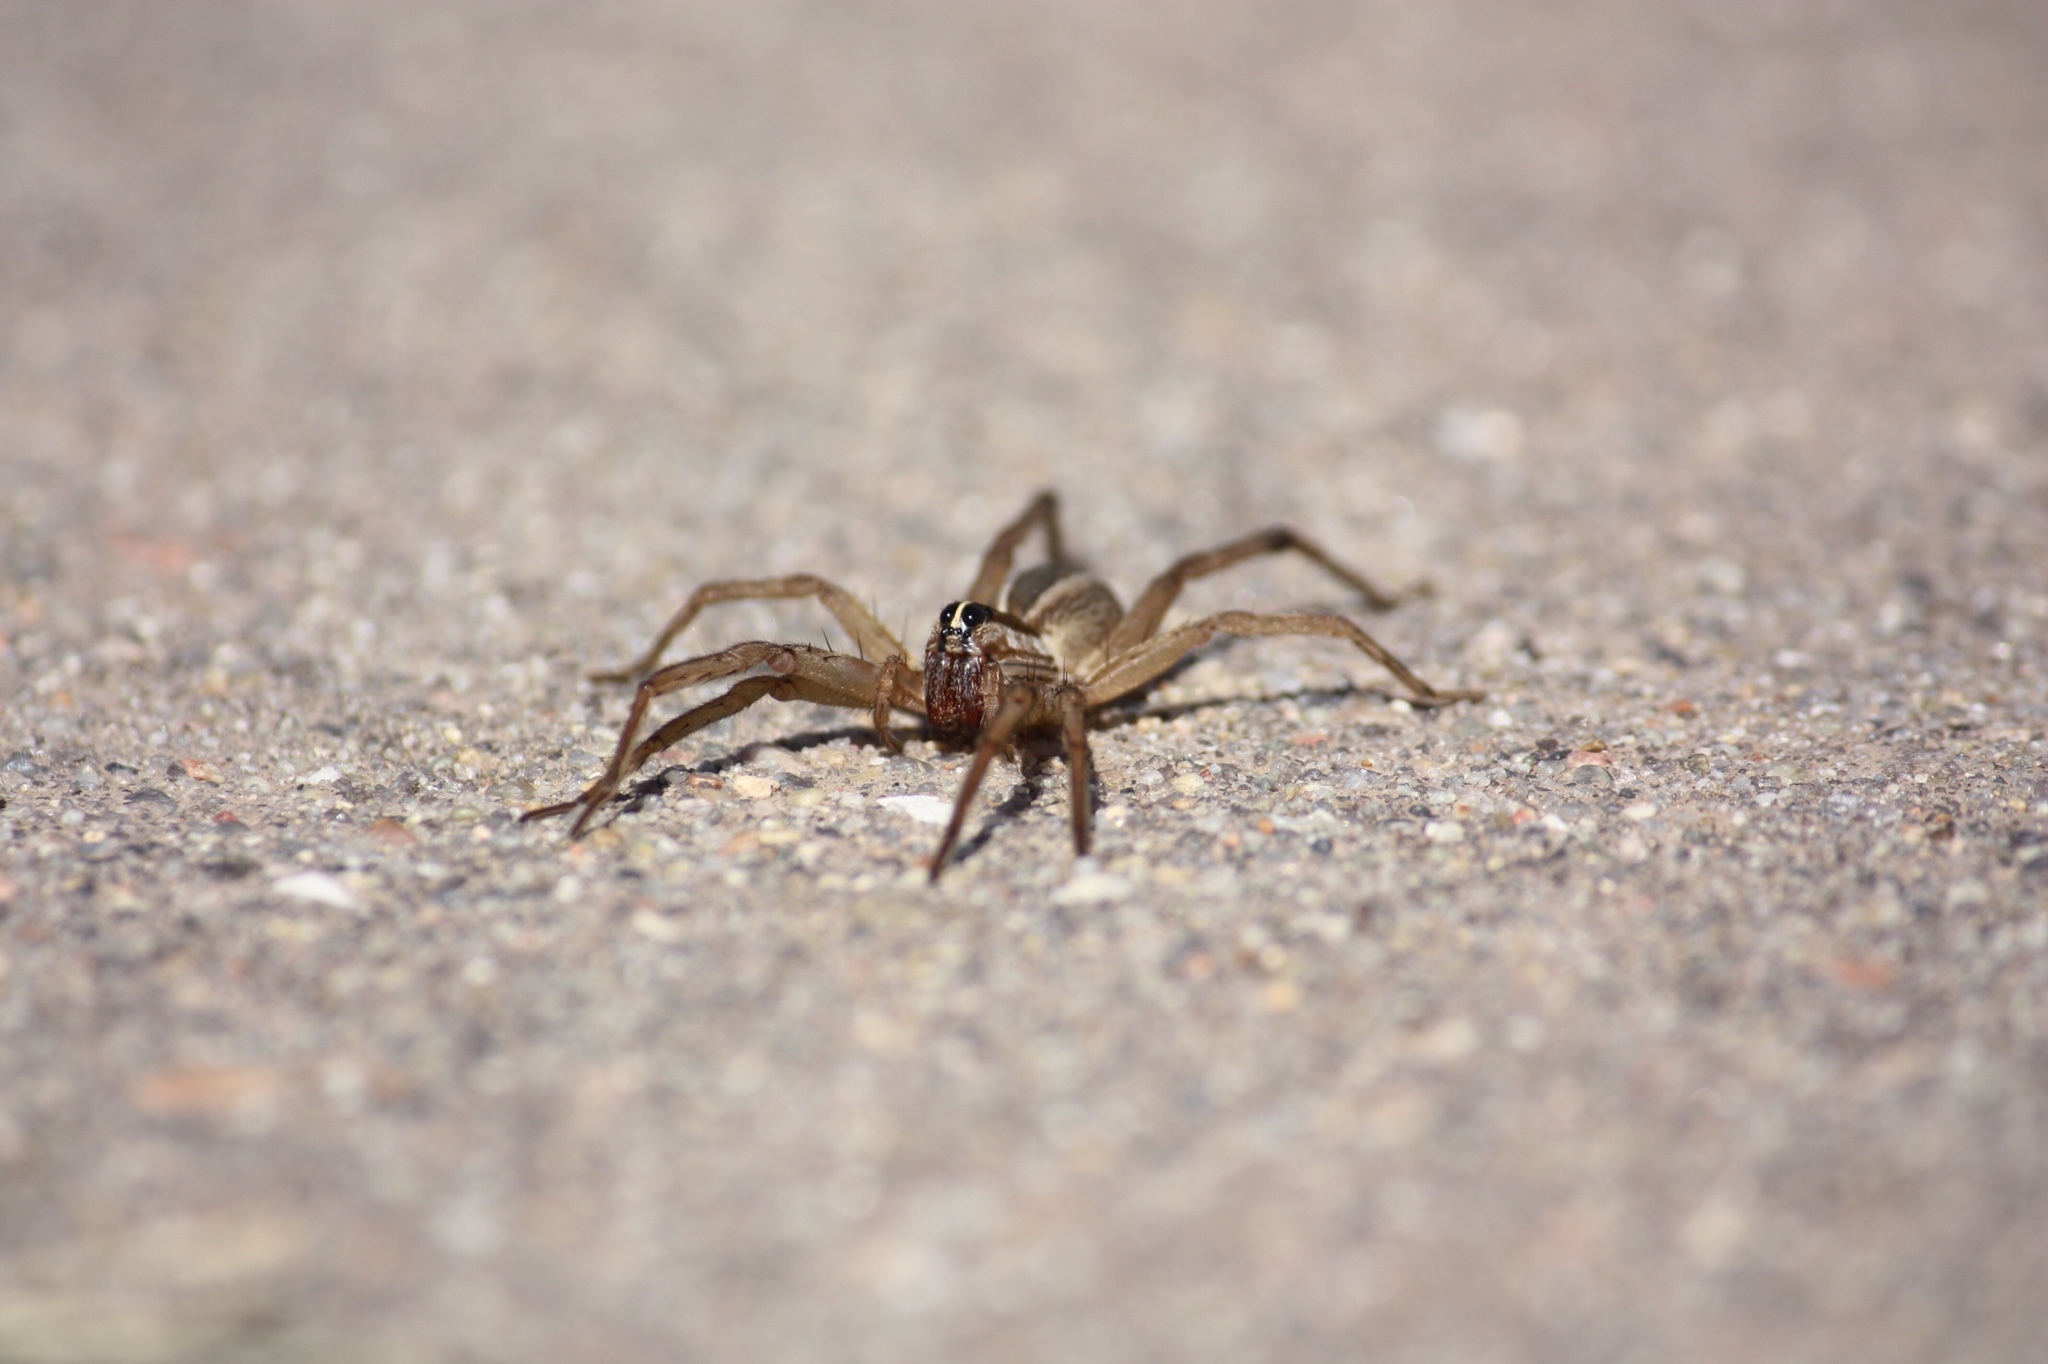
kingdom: Animalia
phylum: Arthropoda
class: Arachnida
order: Araneae
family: Lycosidae
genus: Rabidosa
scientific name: Rabidosa rabida
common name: Rabid wolf spider
